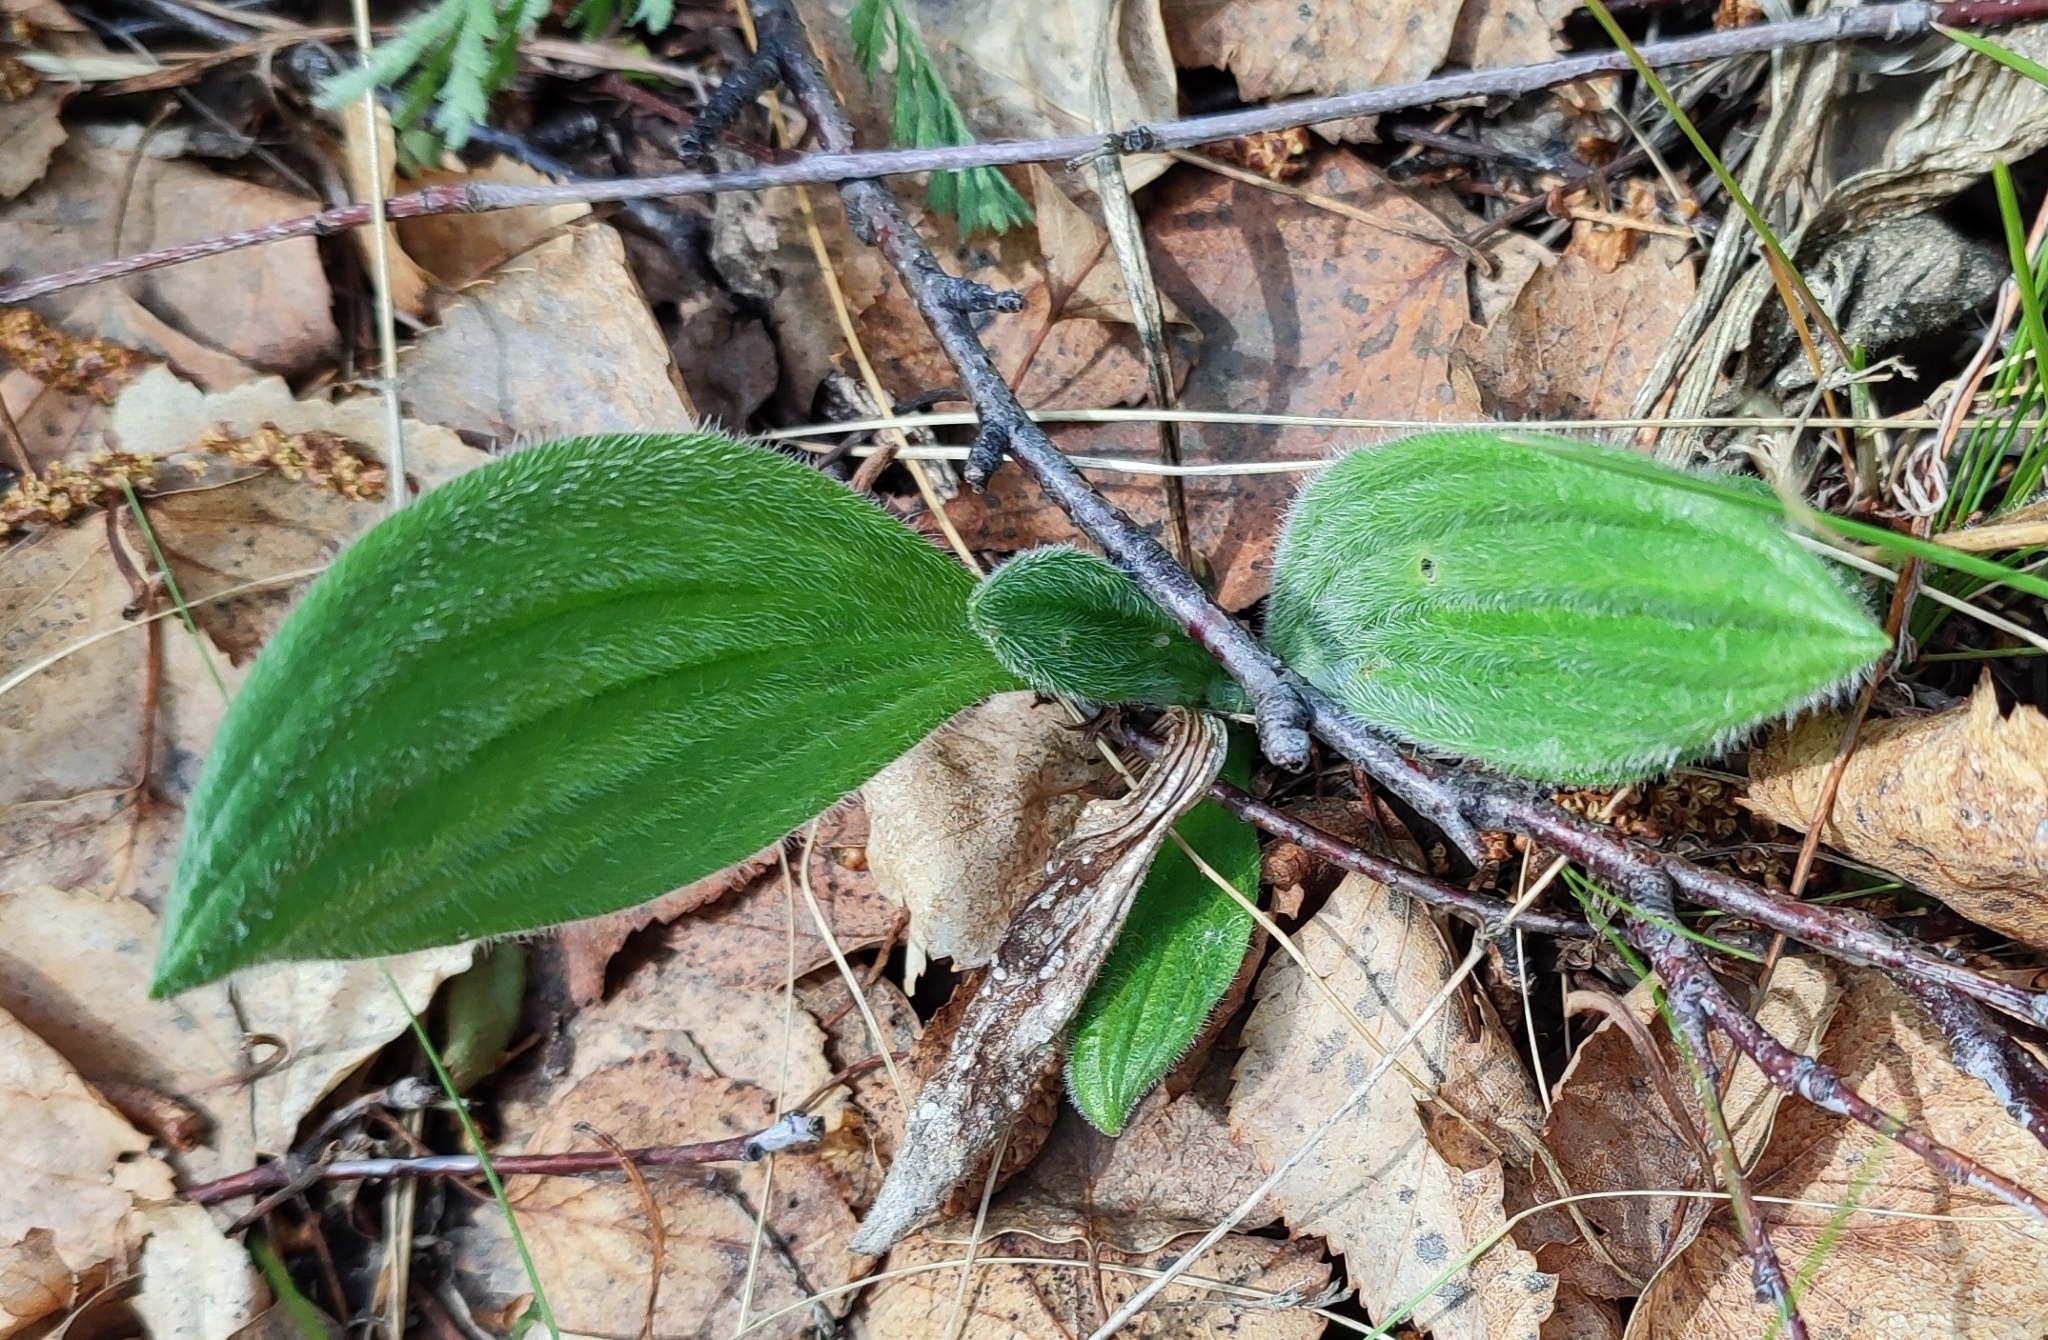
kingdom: Plantae
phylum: Tracheophyta
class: Magnoliopsida
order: Lamiales
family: Plantaginaceae
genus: Plantago
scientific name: Plantago media
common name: Hoary plantain
